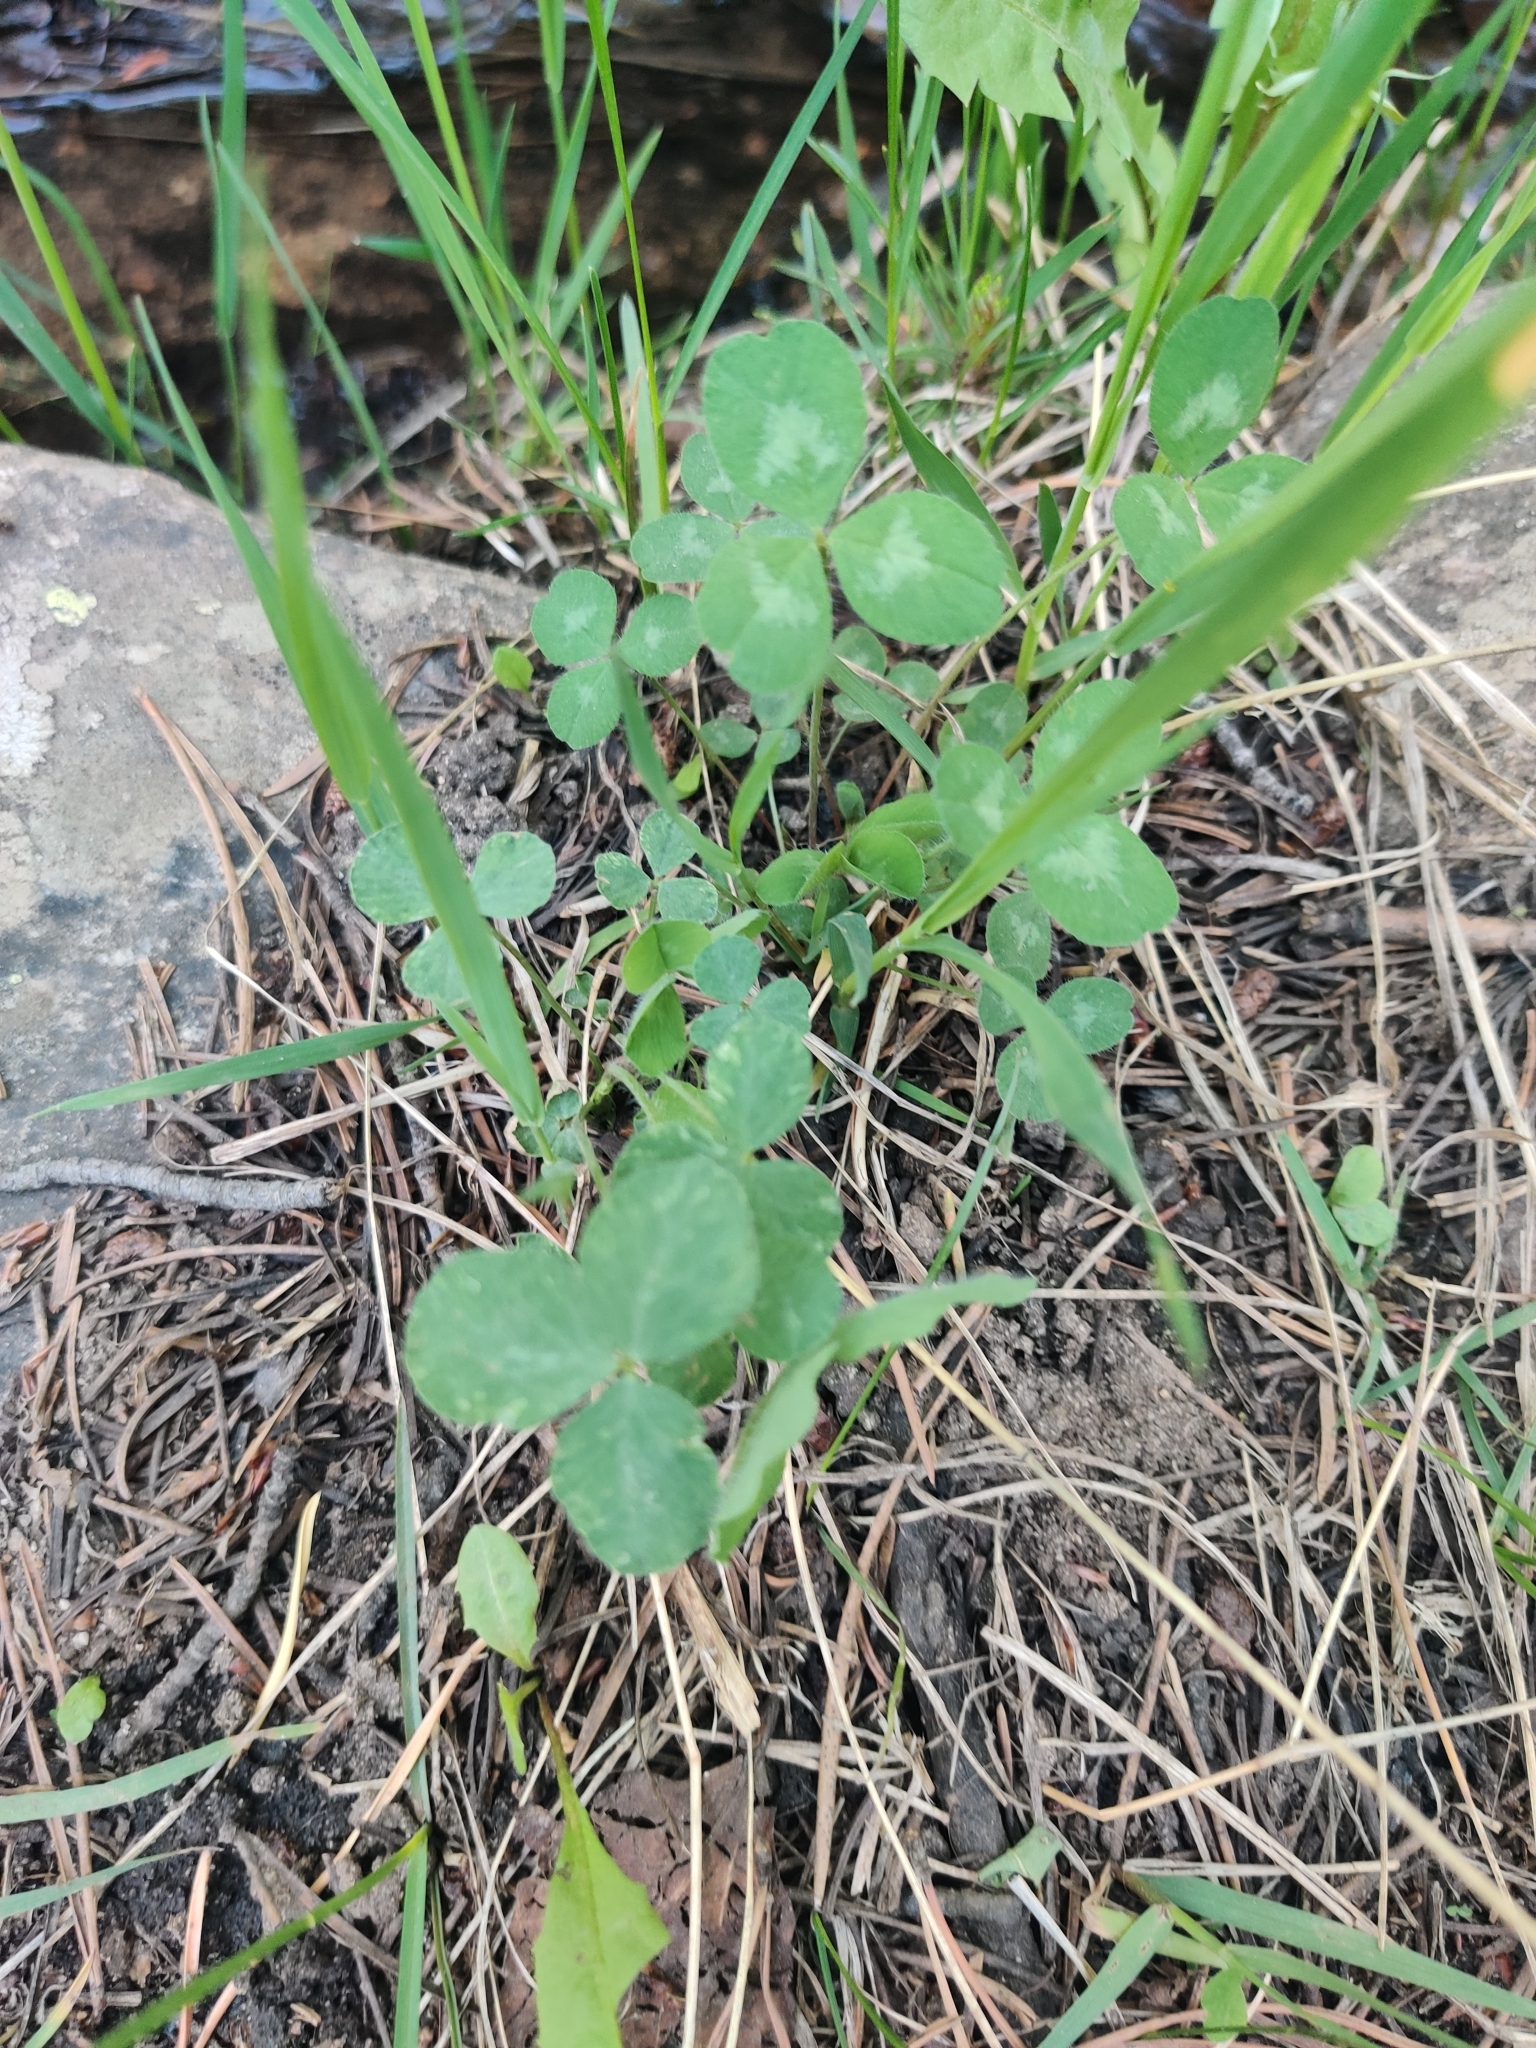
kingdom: Plantae
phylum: Tracheophyta
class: Magnoliopsida
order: Fabales
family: Fabaceae
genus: Trifolium
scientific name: Trifolium repens
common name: White clover
